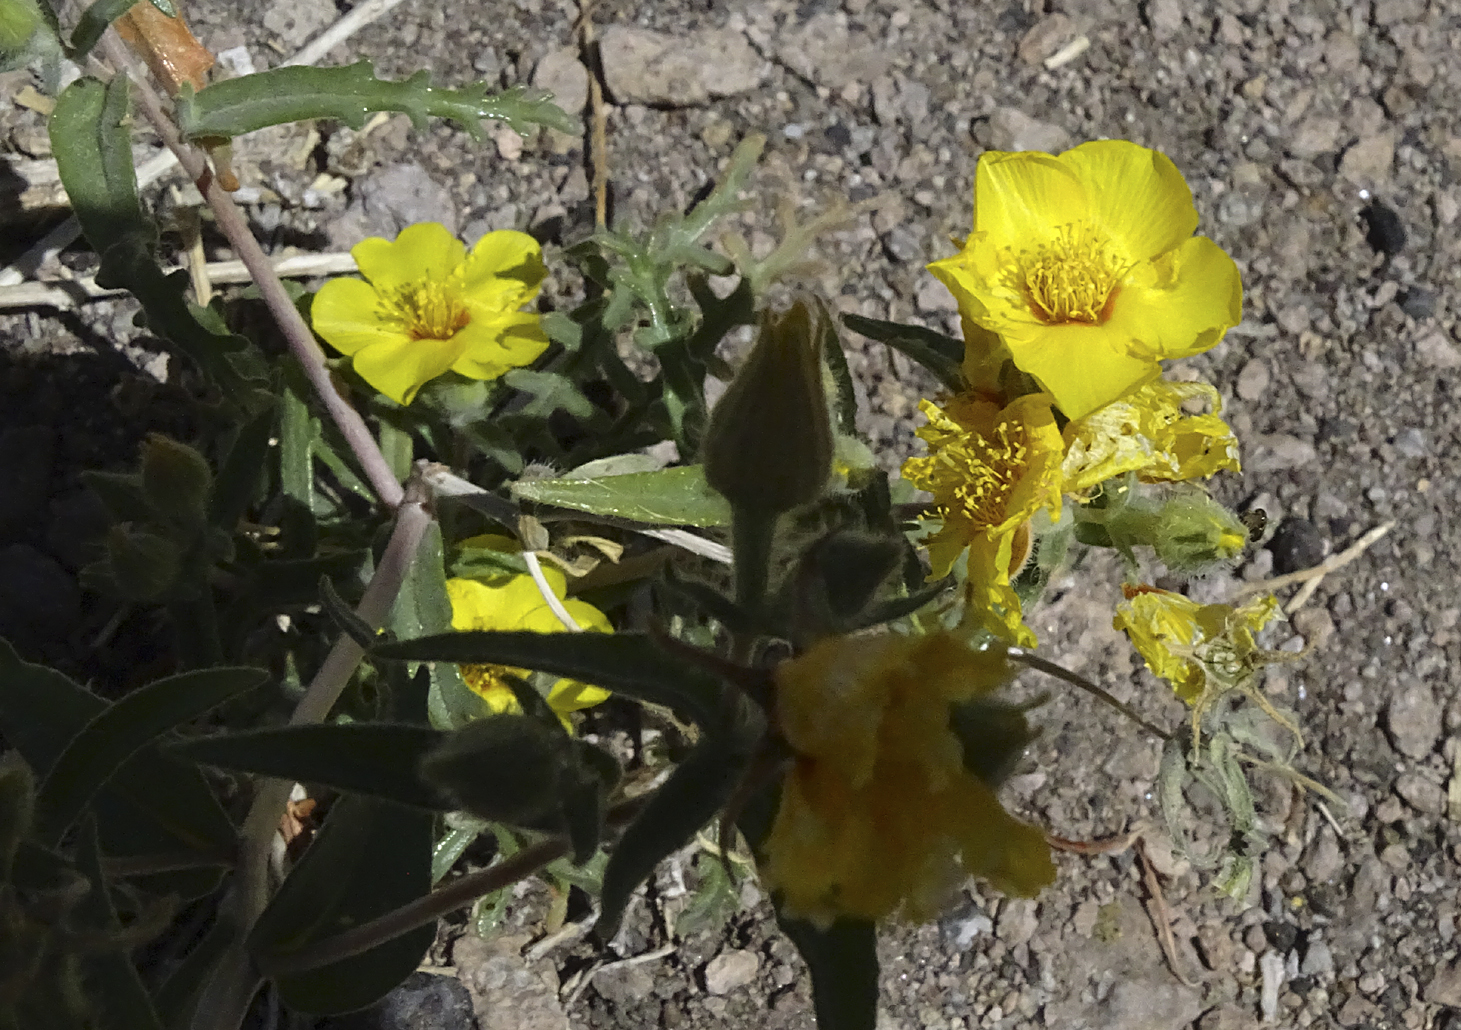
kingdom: Plantae
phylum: Tracheophyta
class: Magnoliopsida
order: Cornales
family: Loasaceae
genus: Mentzelia
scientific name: Mentzelia nitens
